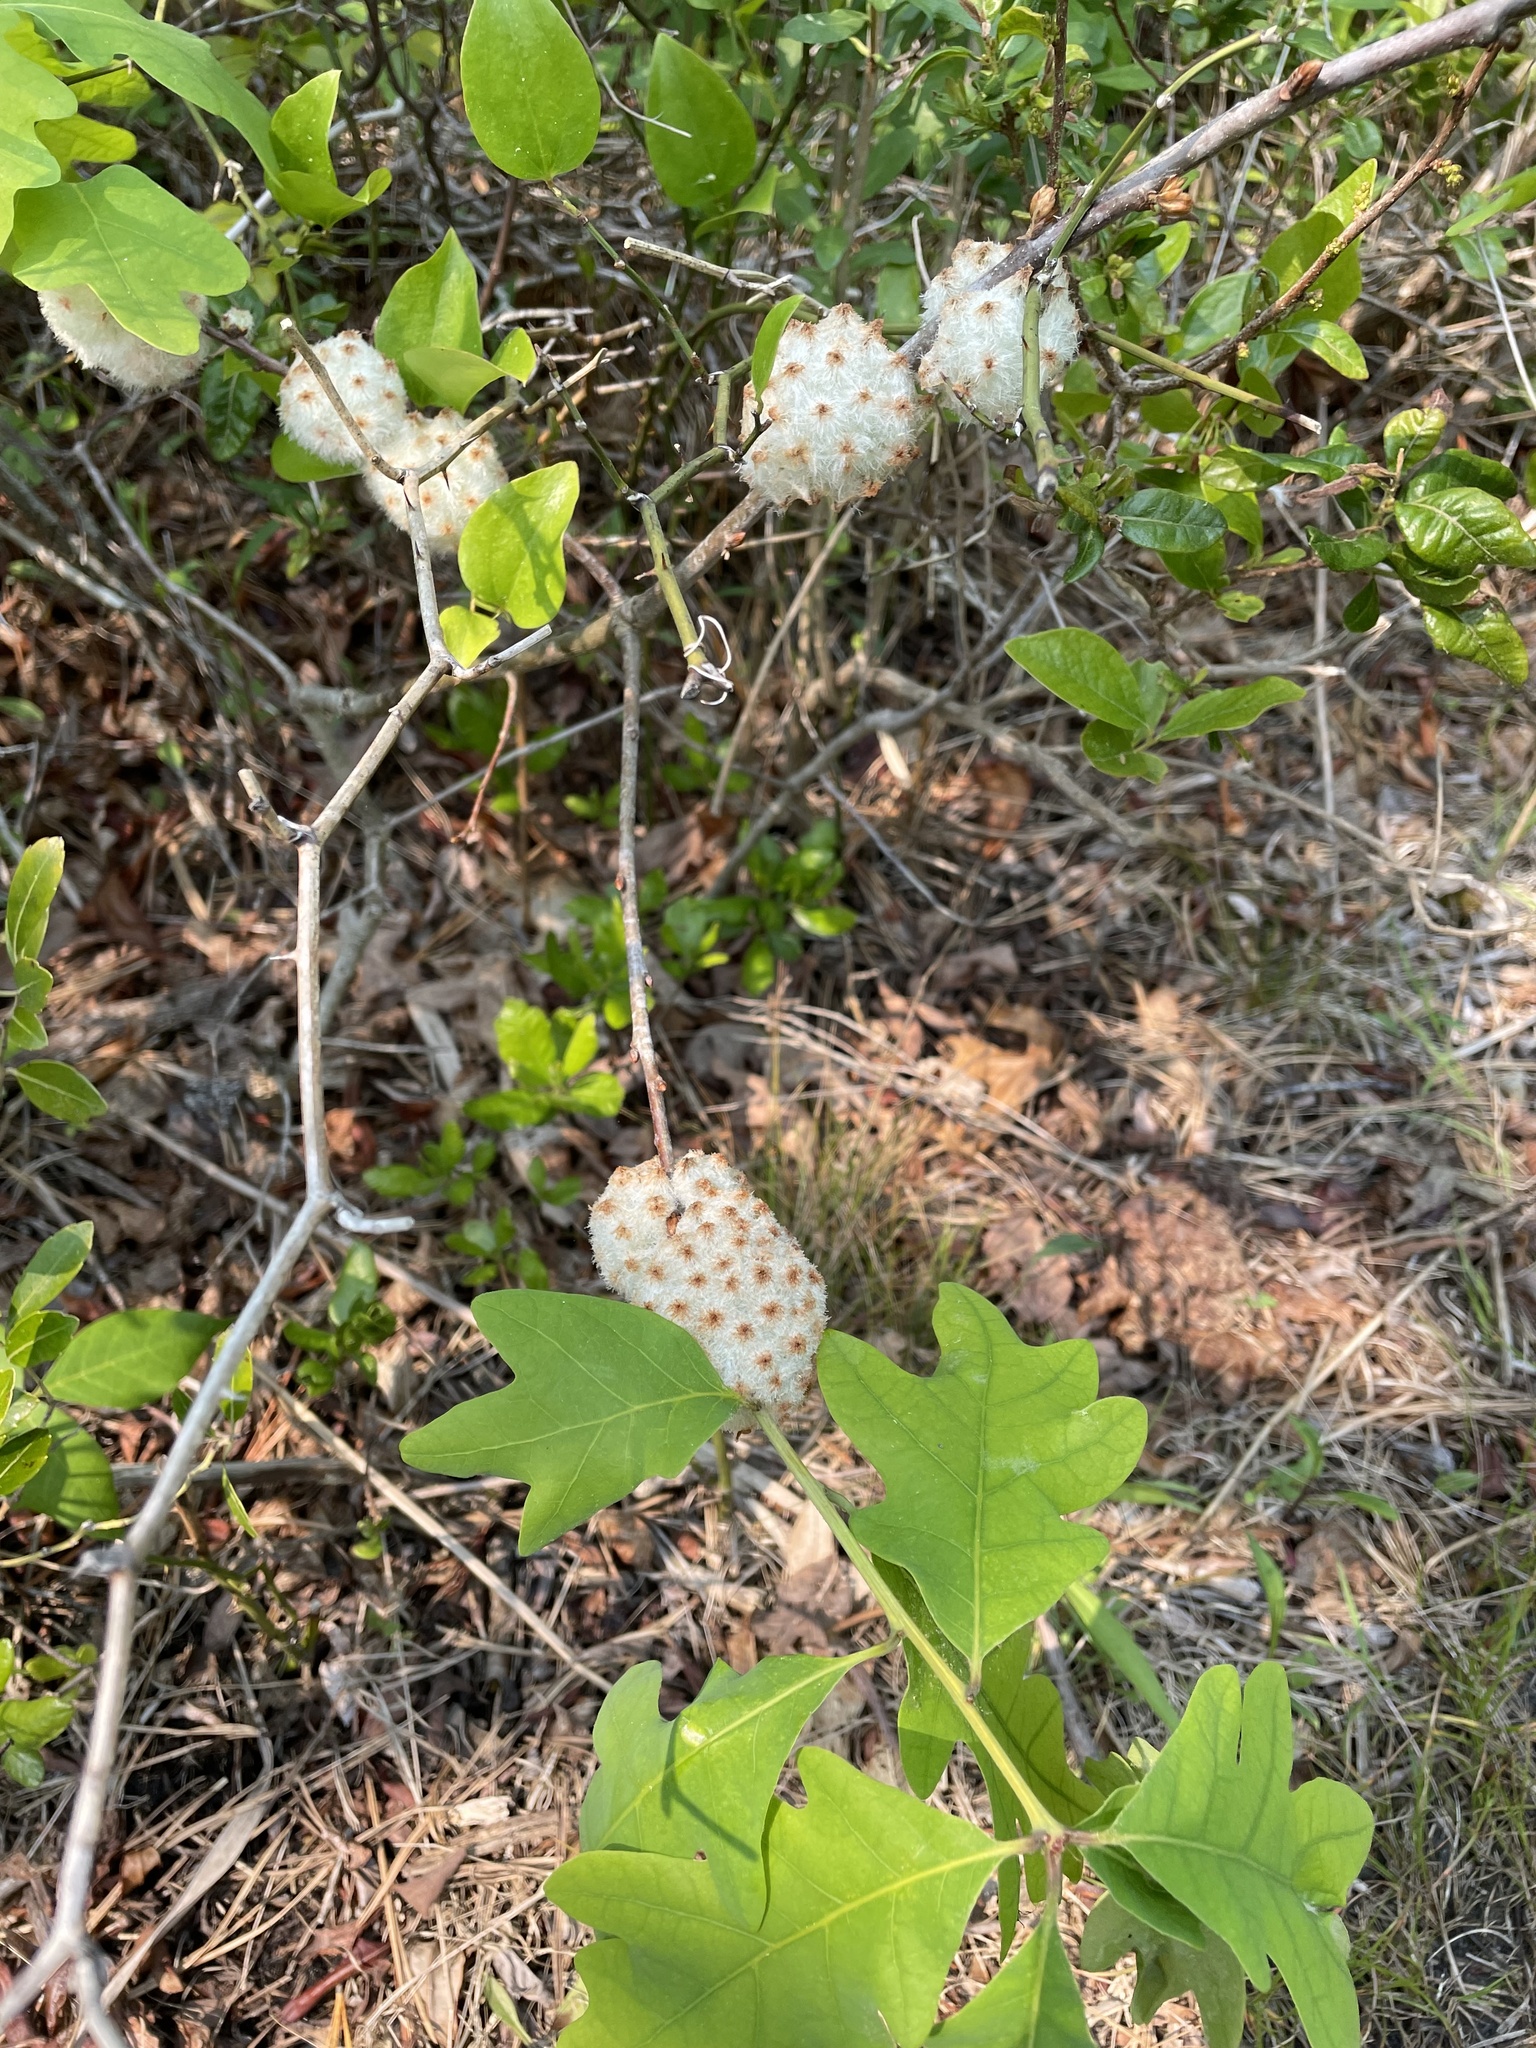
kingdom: Animalia
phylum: Arthropoda
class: Insecta
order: Hymenoptera
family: Cynipidae
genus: Callirhytis
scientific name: Callirhytis
